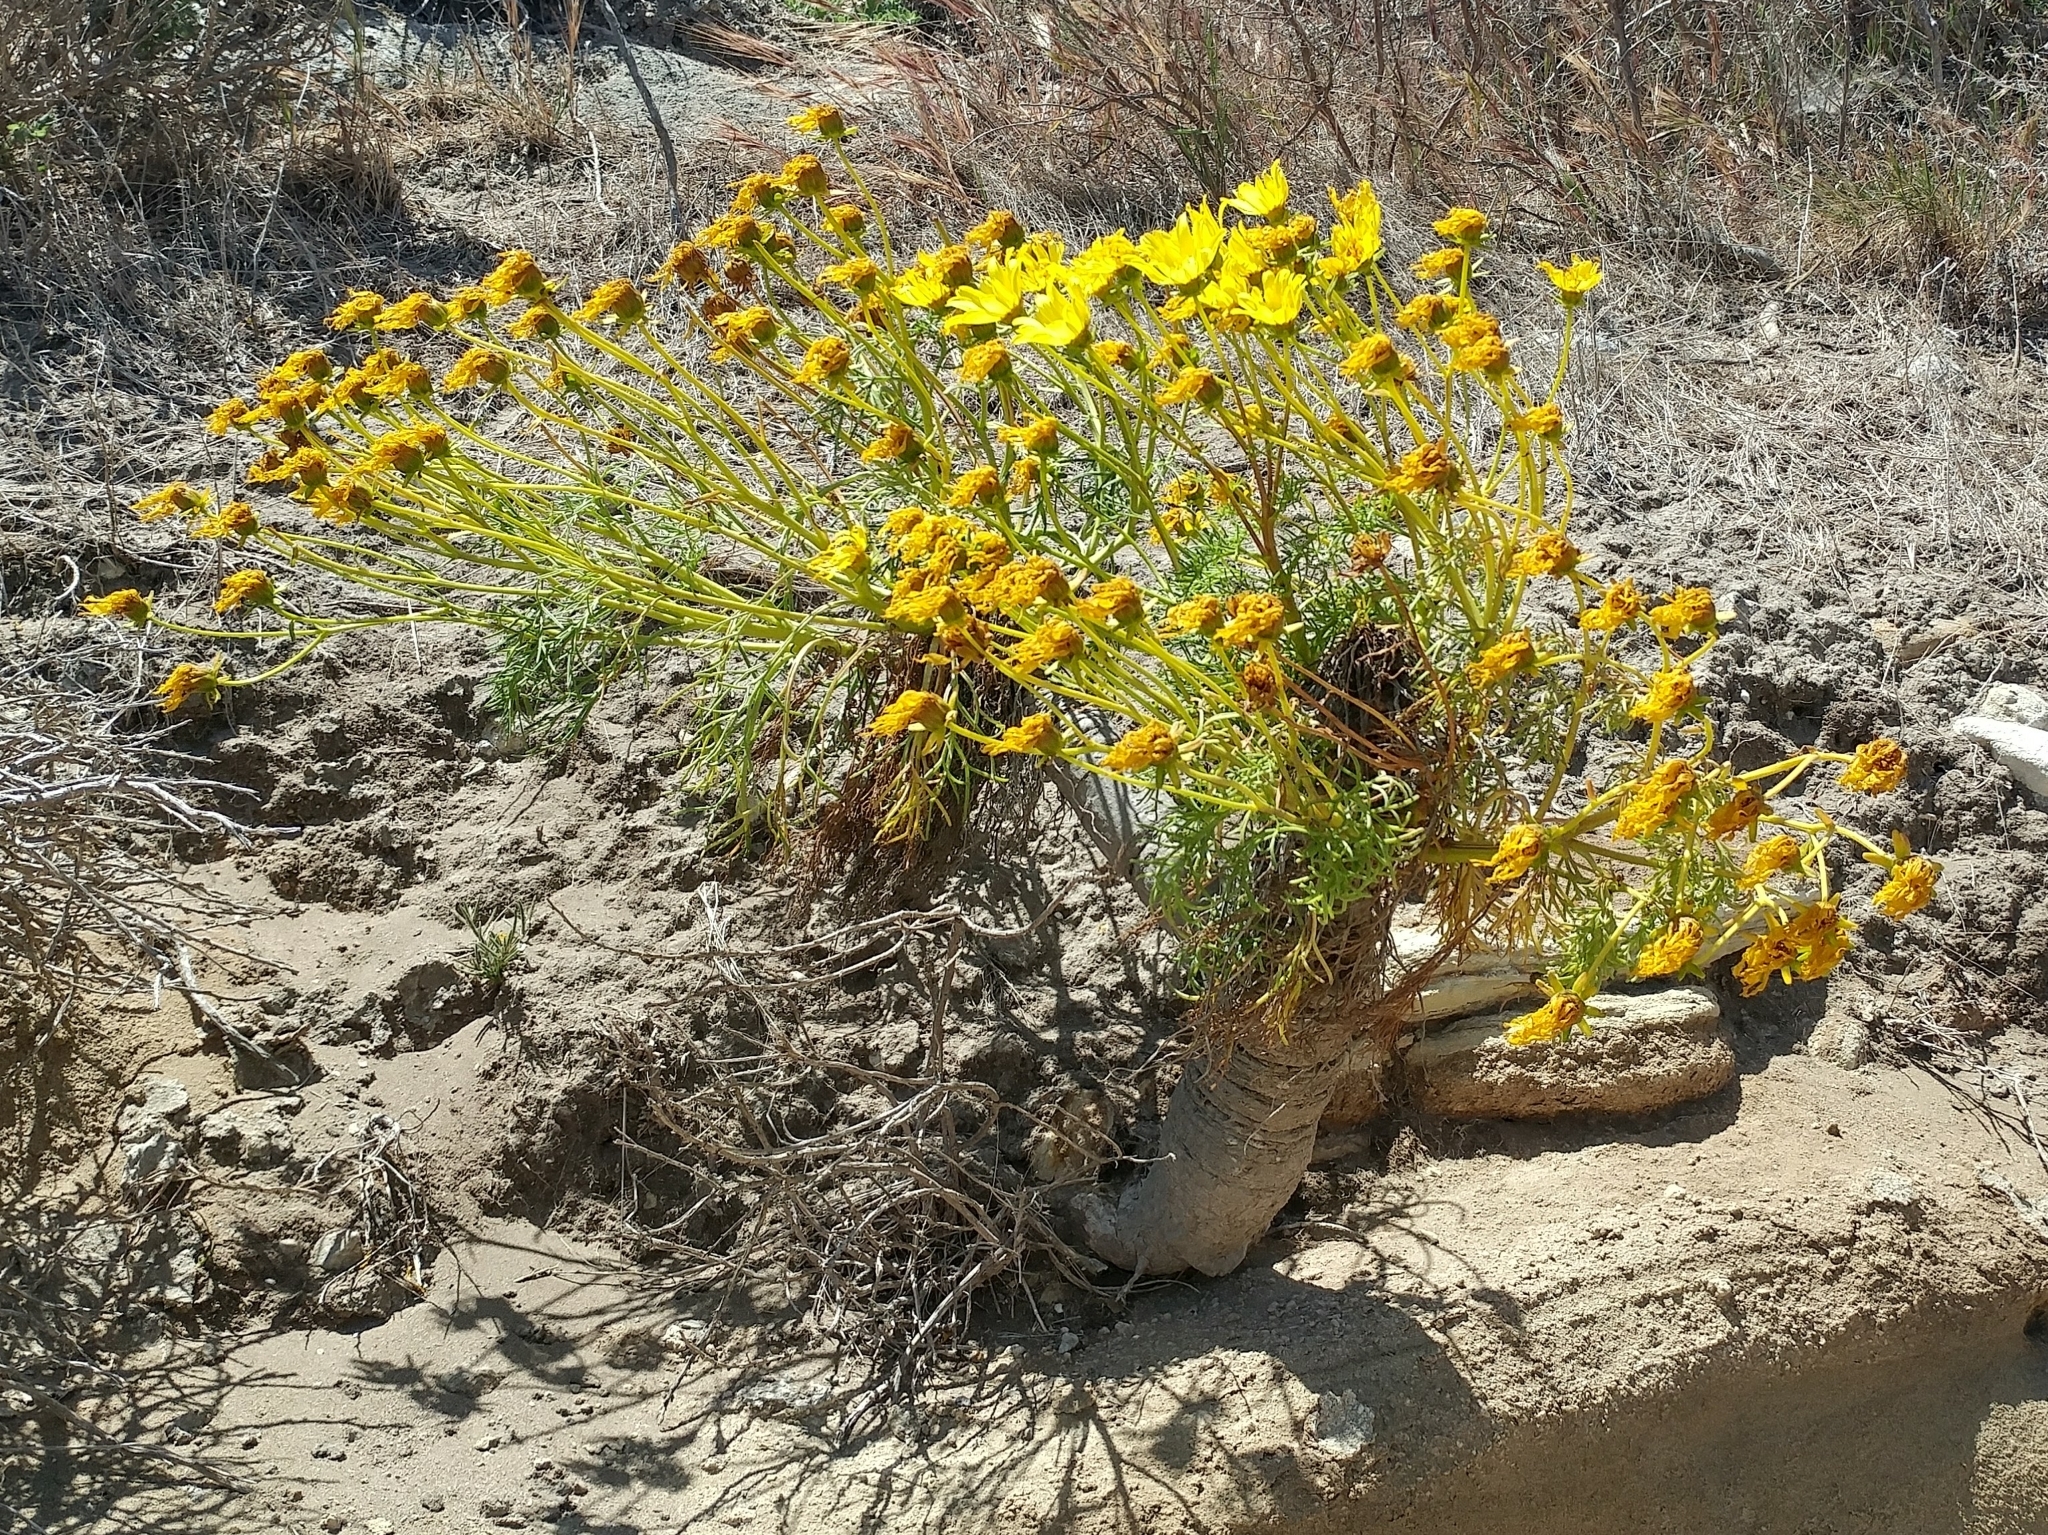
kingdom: Plantae
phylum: Tracheophyta
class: Magnoliopsida
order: Asterales
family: Asteraceae
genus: Coreopsis
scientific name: Coreopsis gigantea
